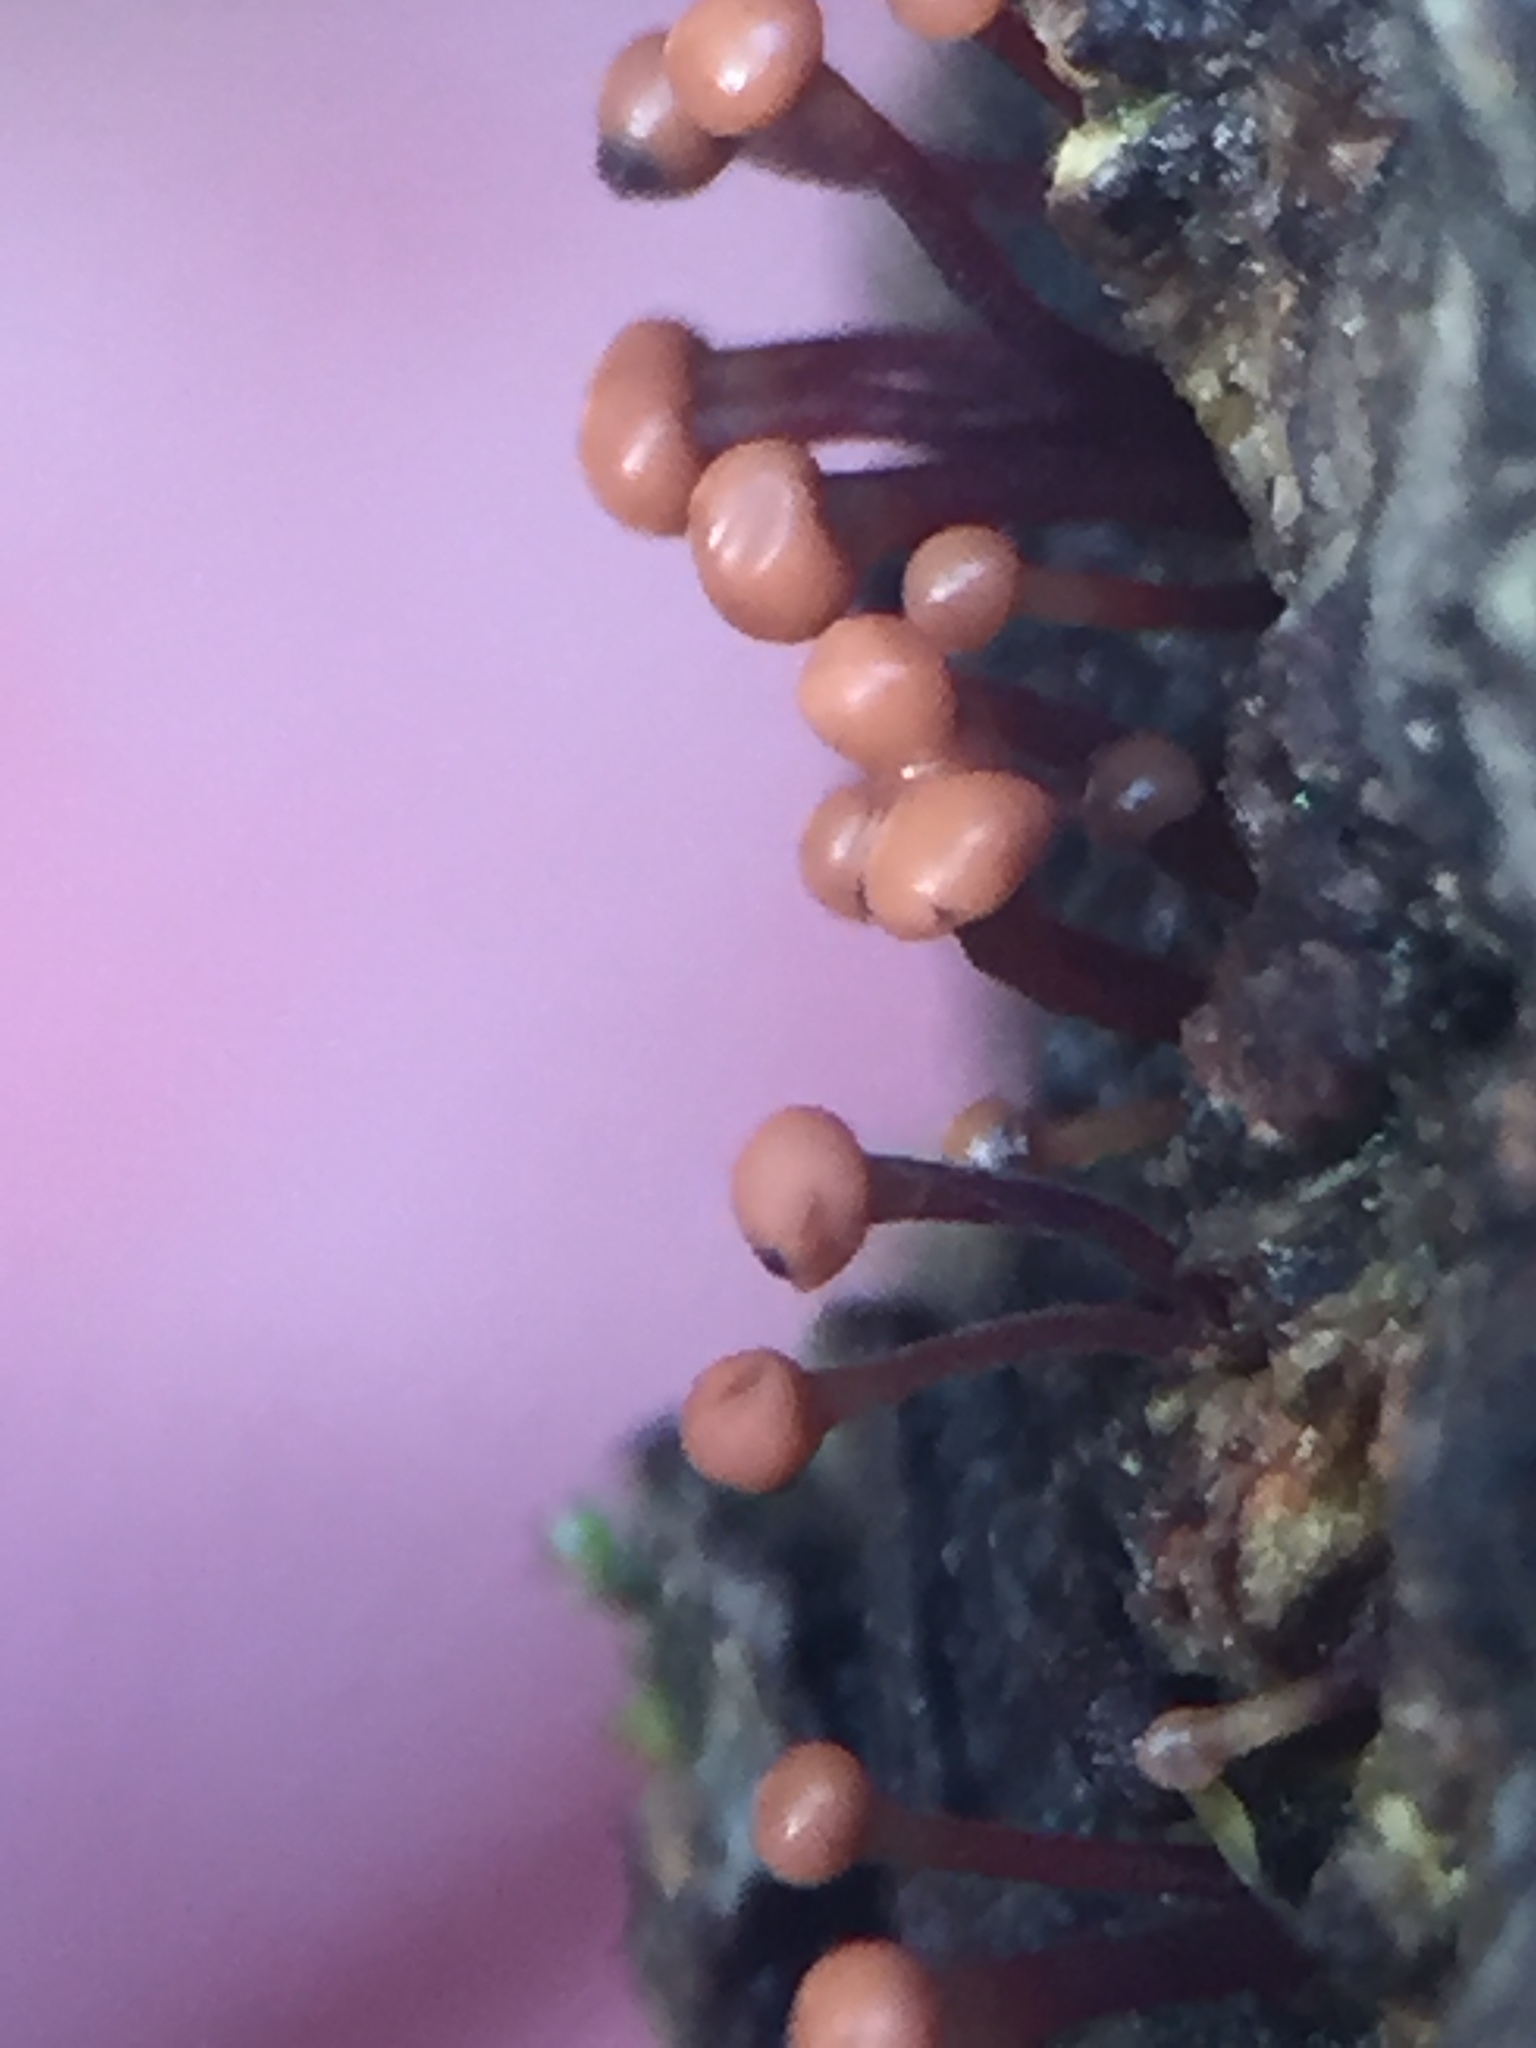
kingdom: Fungi
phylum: Ascomycota
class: Sordariomycetes
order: Hypocreales
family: Nectriaceae
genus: Murinectria
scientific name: Murinectria polythalama
